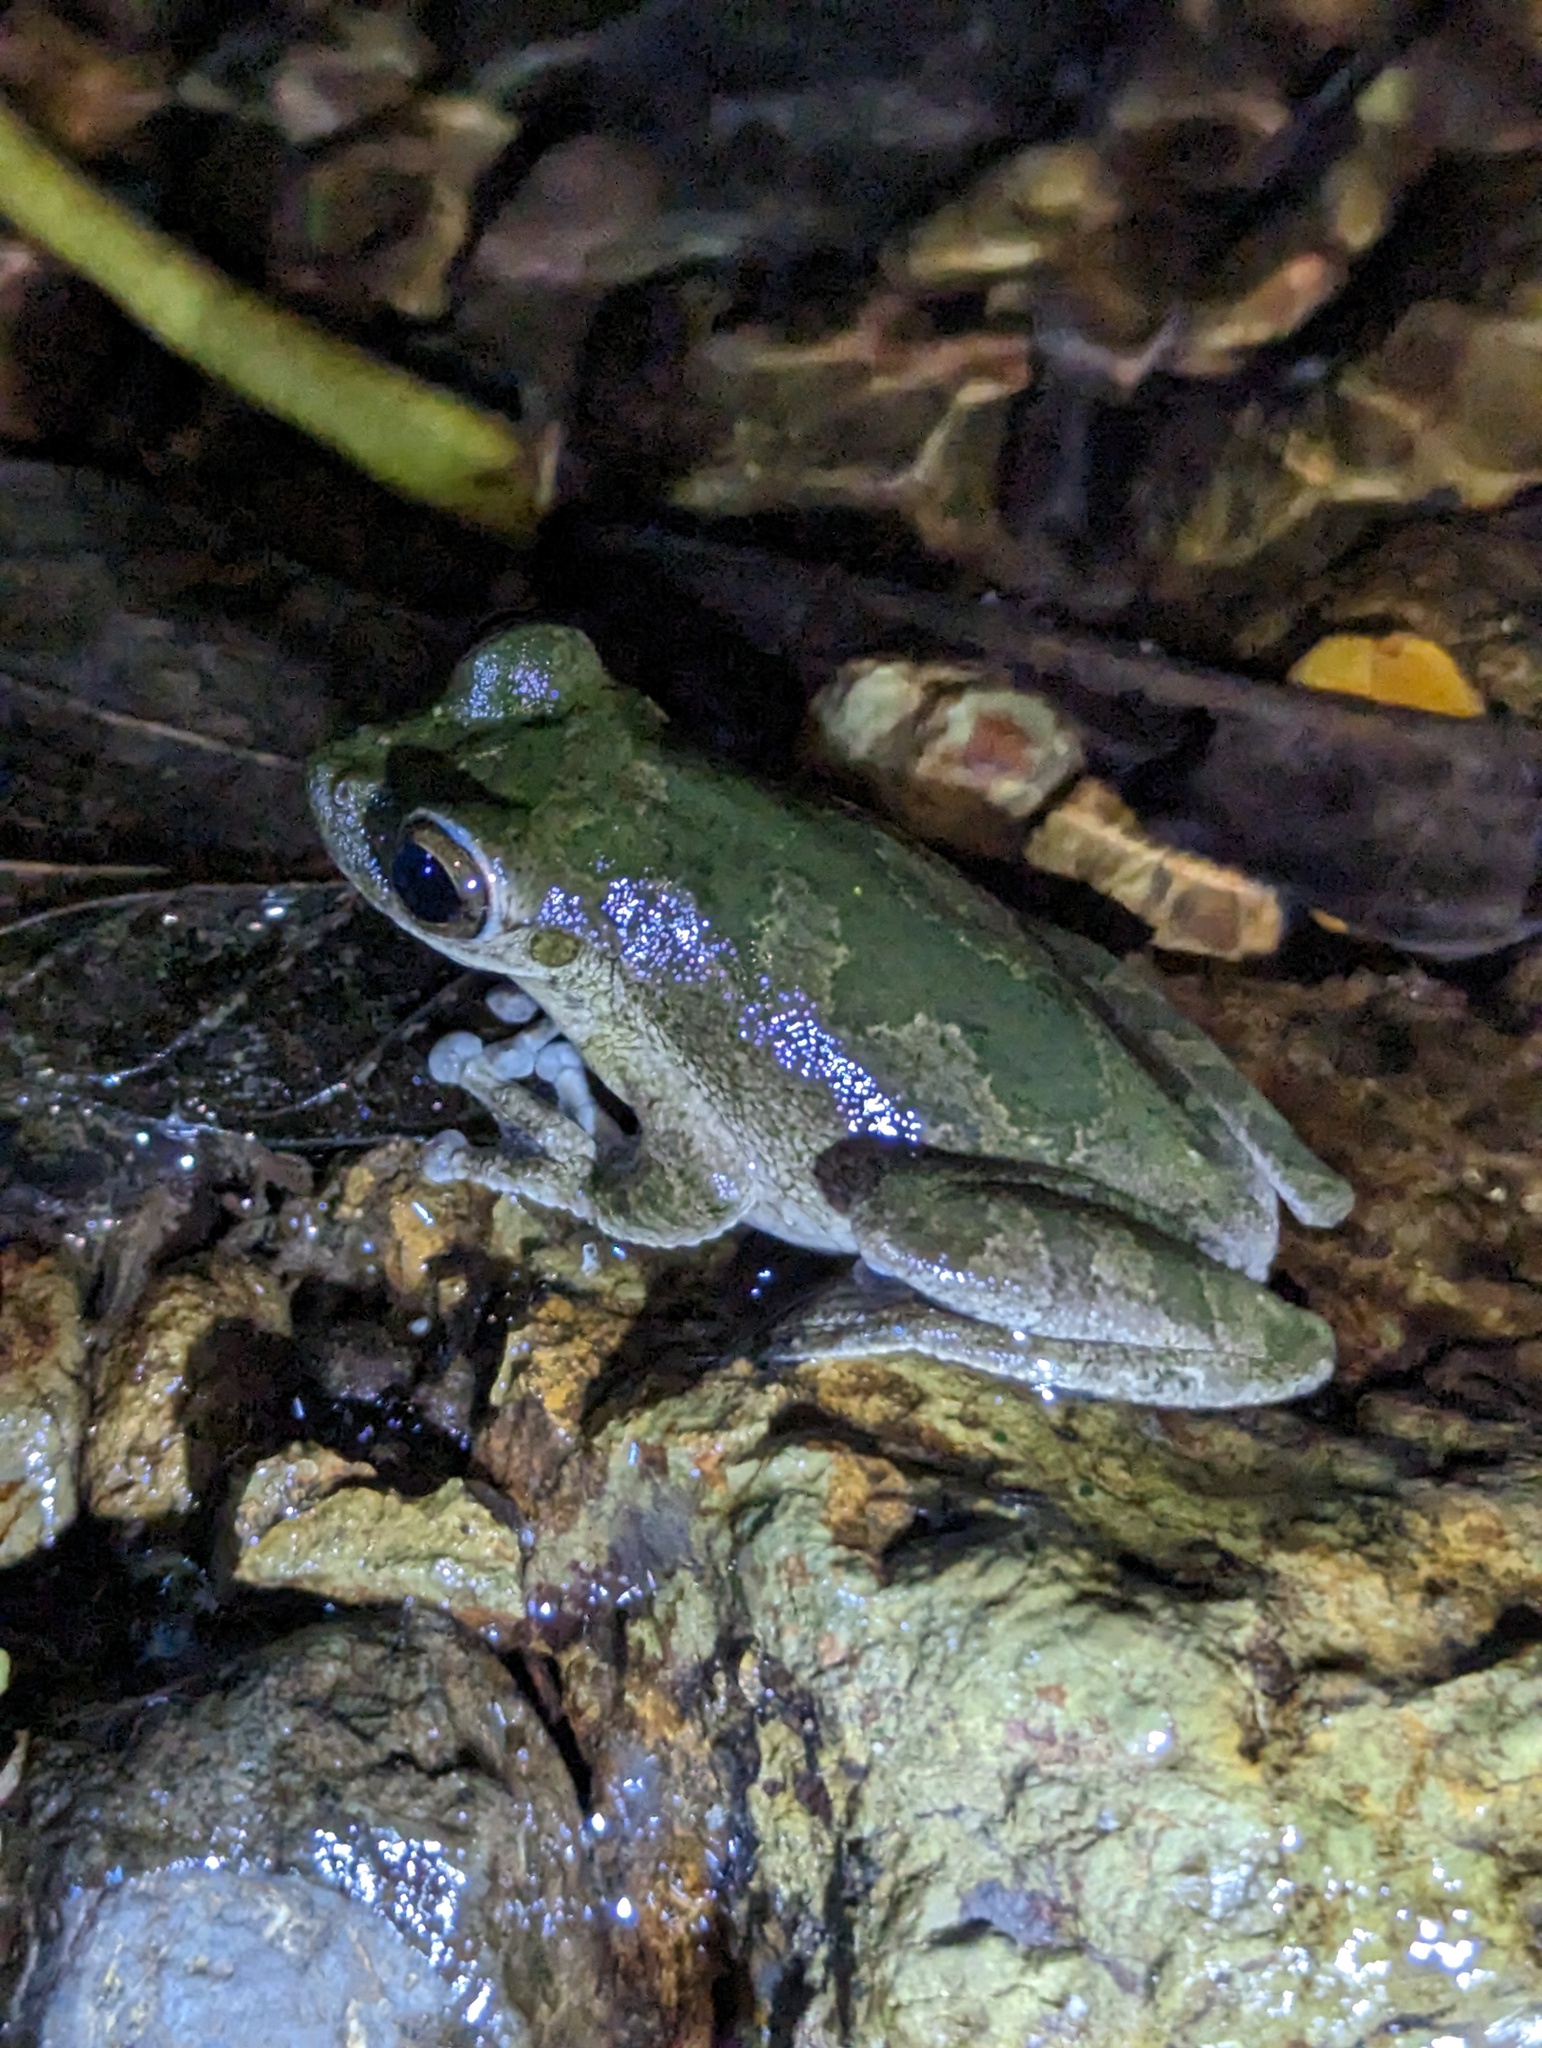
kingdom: Animalia
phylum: Chordata
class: Amphibia
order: Anura
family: Hylidae
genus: Smilisca
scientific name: Smilisca sordida
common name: Veragua cross-banded treefrog
